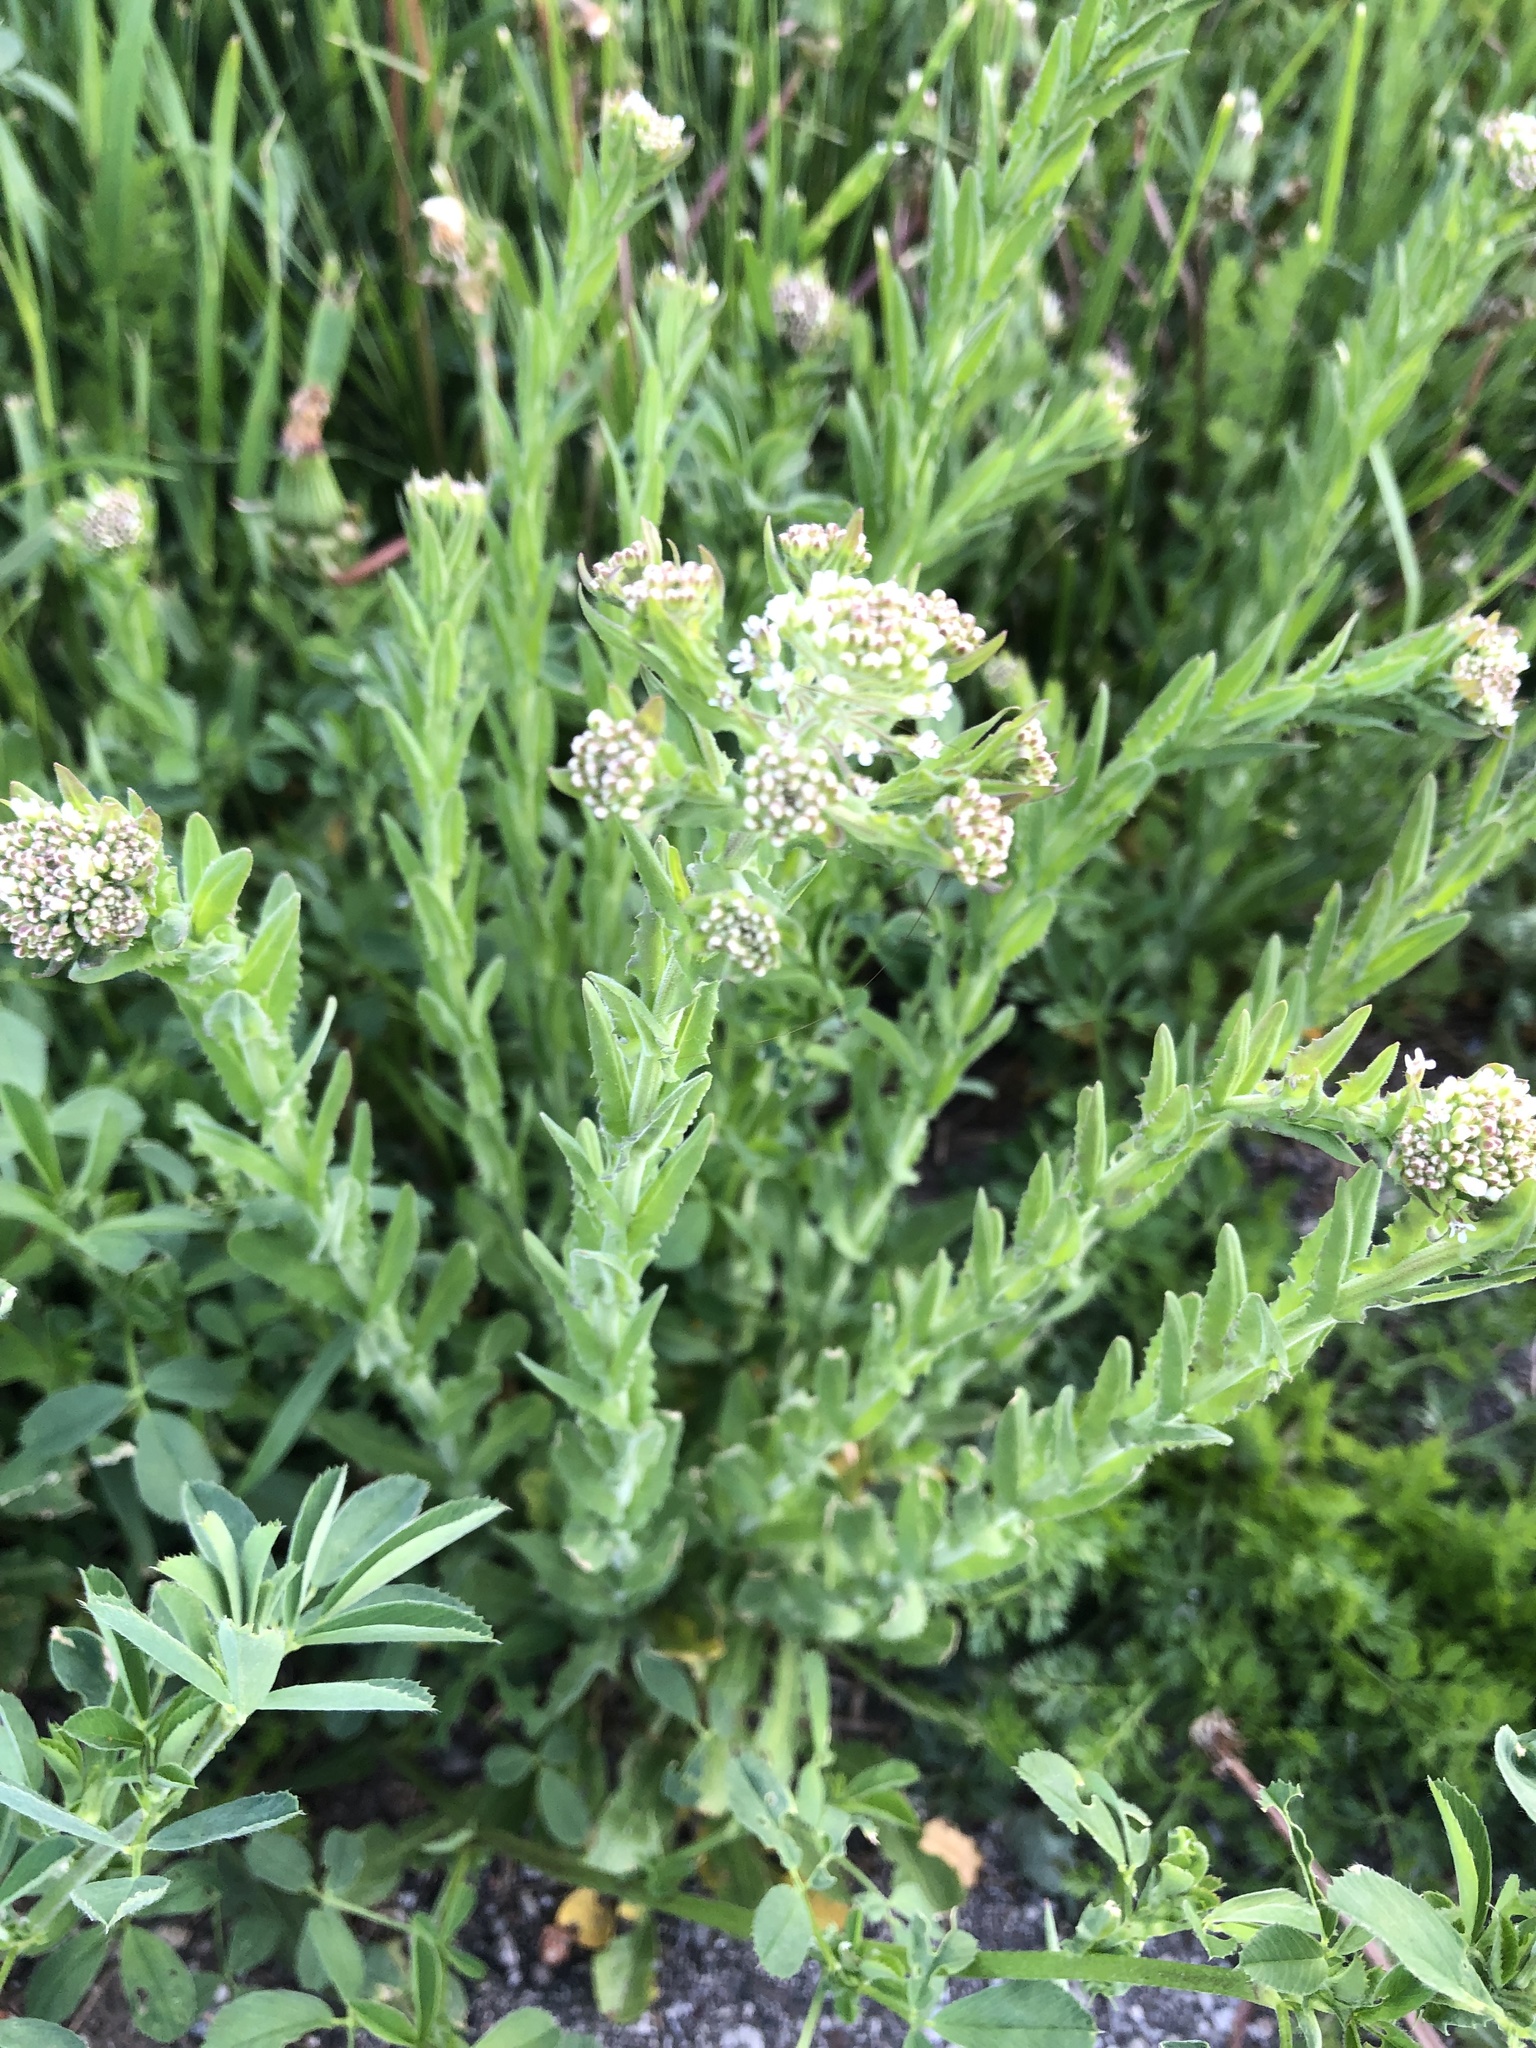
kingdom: Plantae
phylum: Tracheophyta
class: Magnoliopsida
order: Brassicales
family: Brassicaceae
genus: Lepidium
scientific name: Lepidium campestre
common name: Field pepperwort
